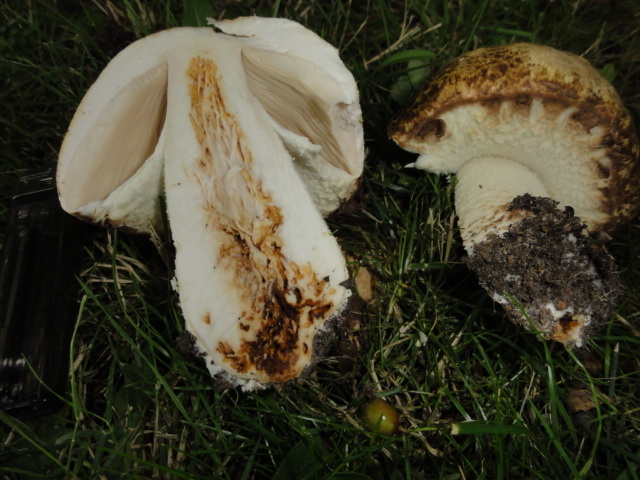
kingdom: Fungi
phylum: Basidiomycota
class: Agaricomycetes
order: Agaricales
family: Agaricaceae
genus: Agaricus
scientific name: Agaricus augustus
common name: Prince
